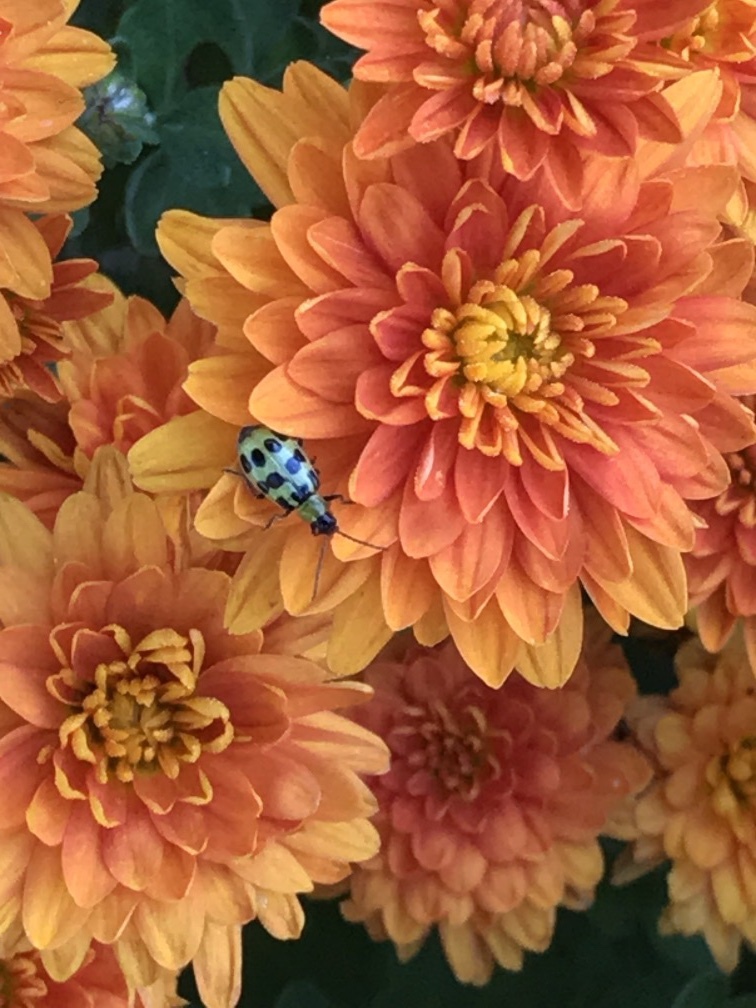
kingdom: Animalia
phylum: Arthropoda
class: Insecta
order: Coleoptera
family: Chrysomelidae
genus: Diabrotica
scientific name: Diabrotica undecimpunctata
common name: Spotted cucumber beetle
